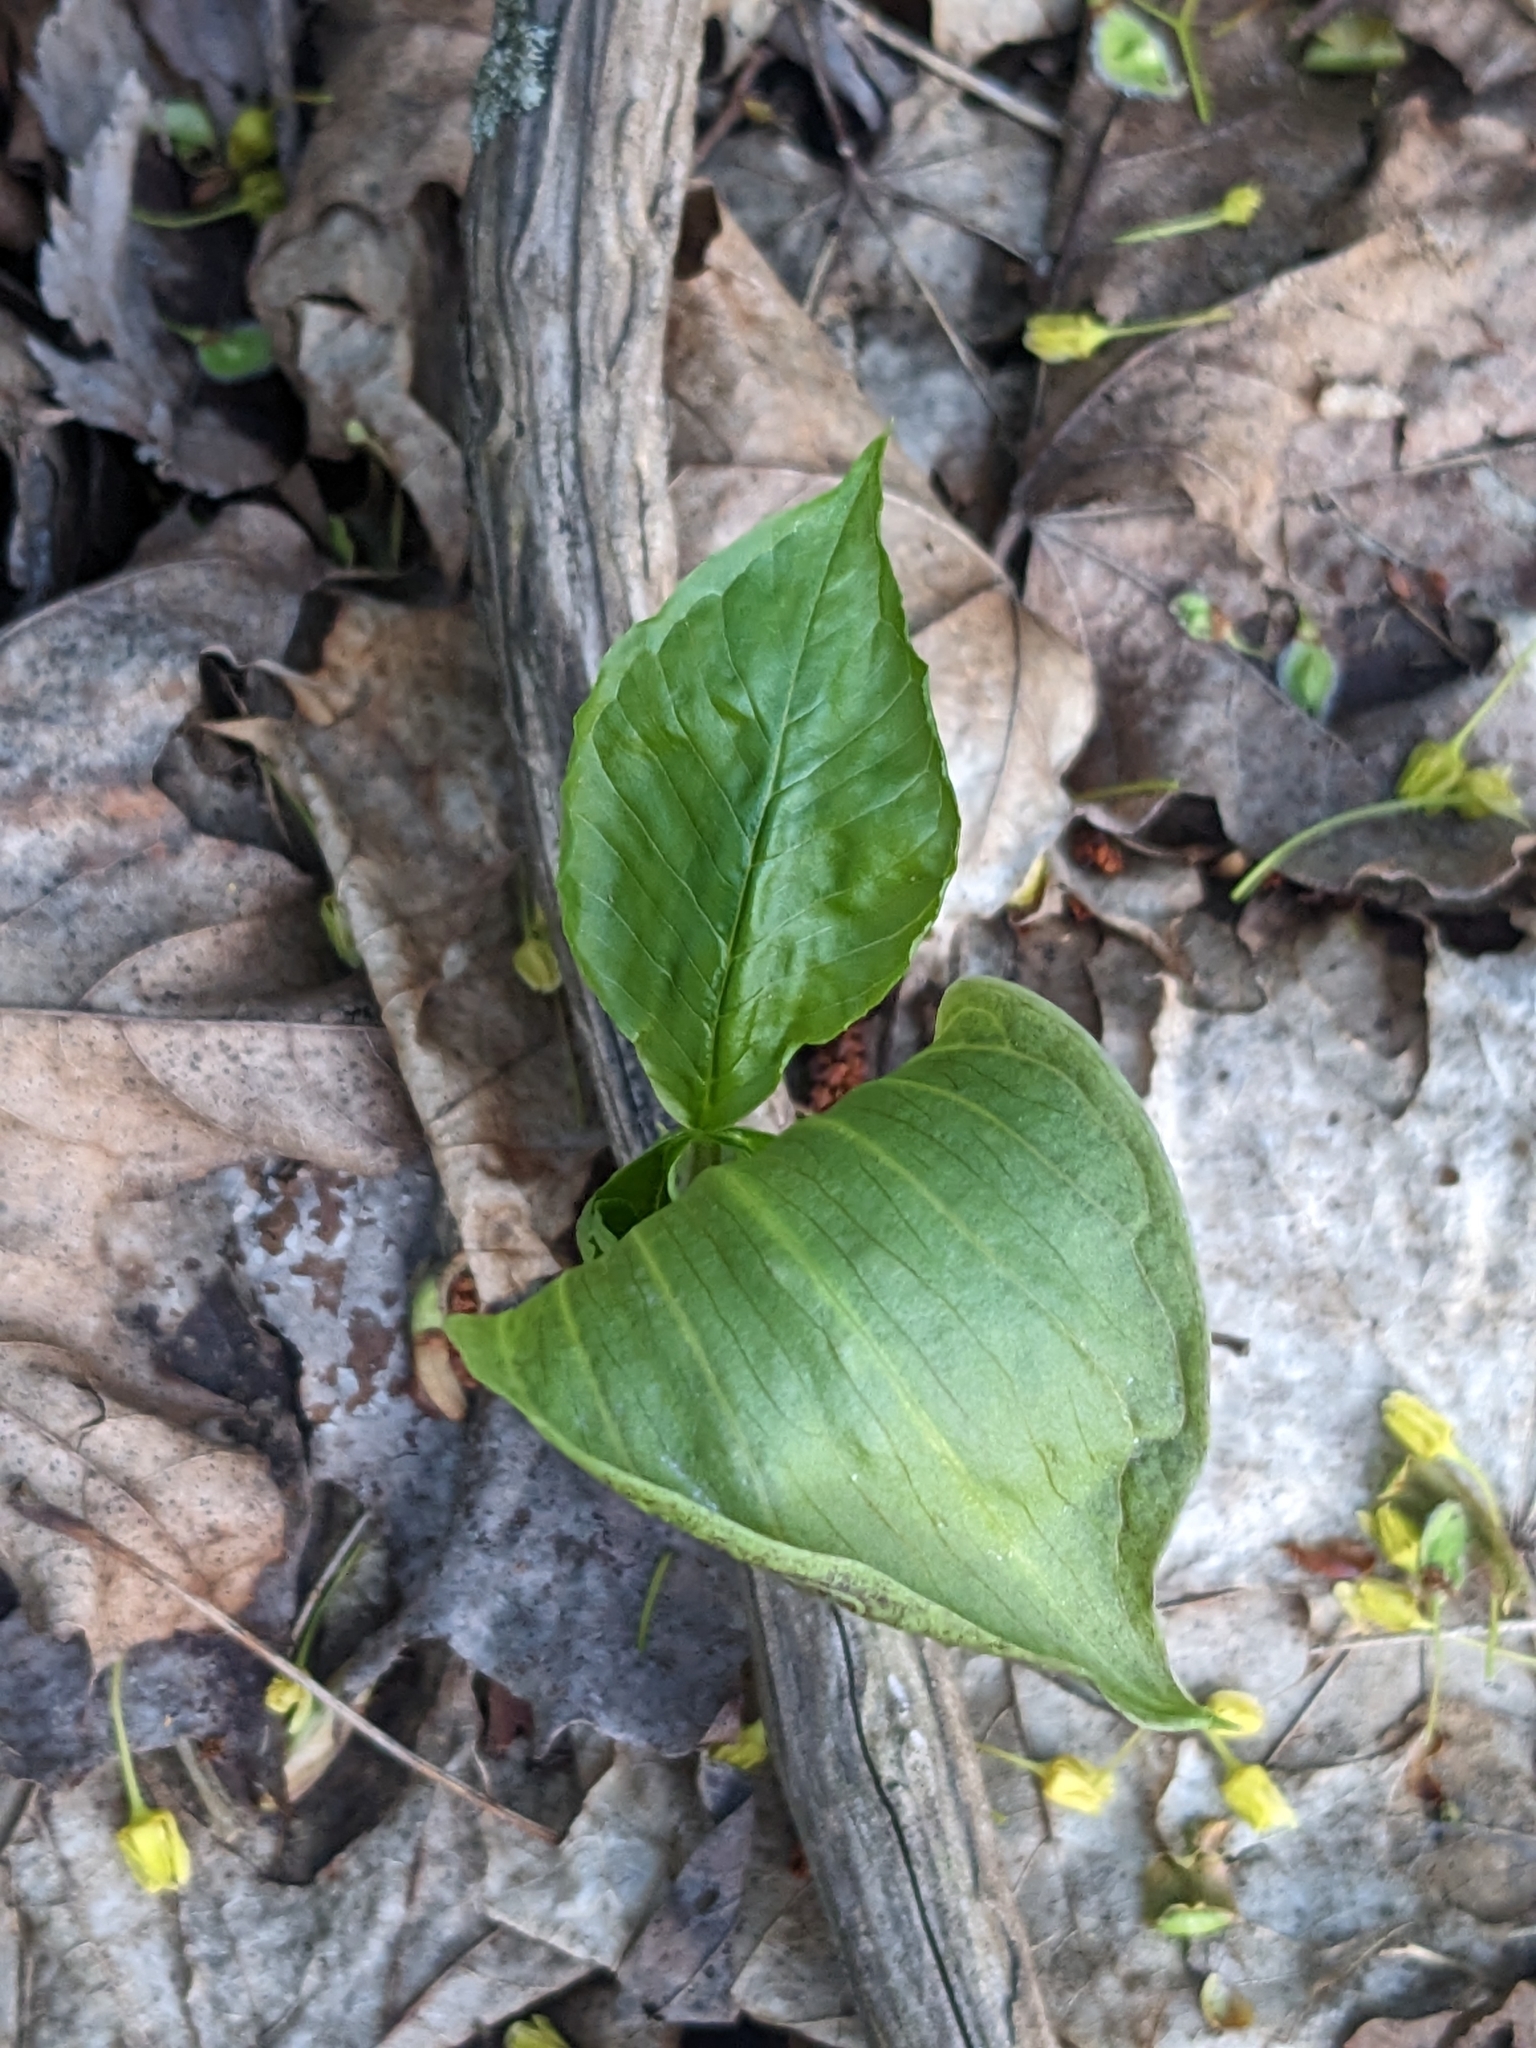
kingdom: Plantae
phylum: Tracheophyta
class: Liliopsida
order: Alismatales
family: Araceae
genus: Arisaema
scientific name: Arisaema triphyllum
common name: Jack-in-the-pulpit
